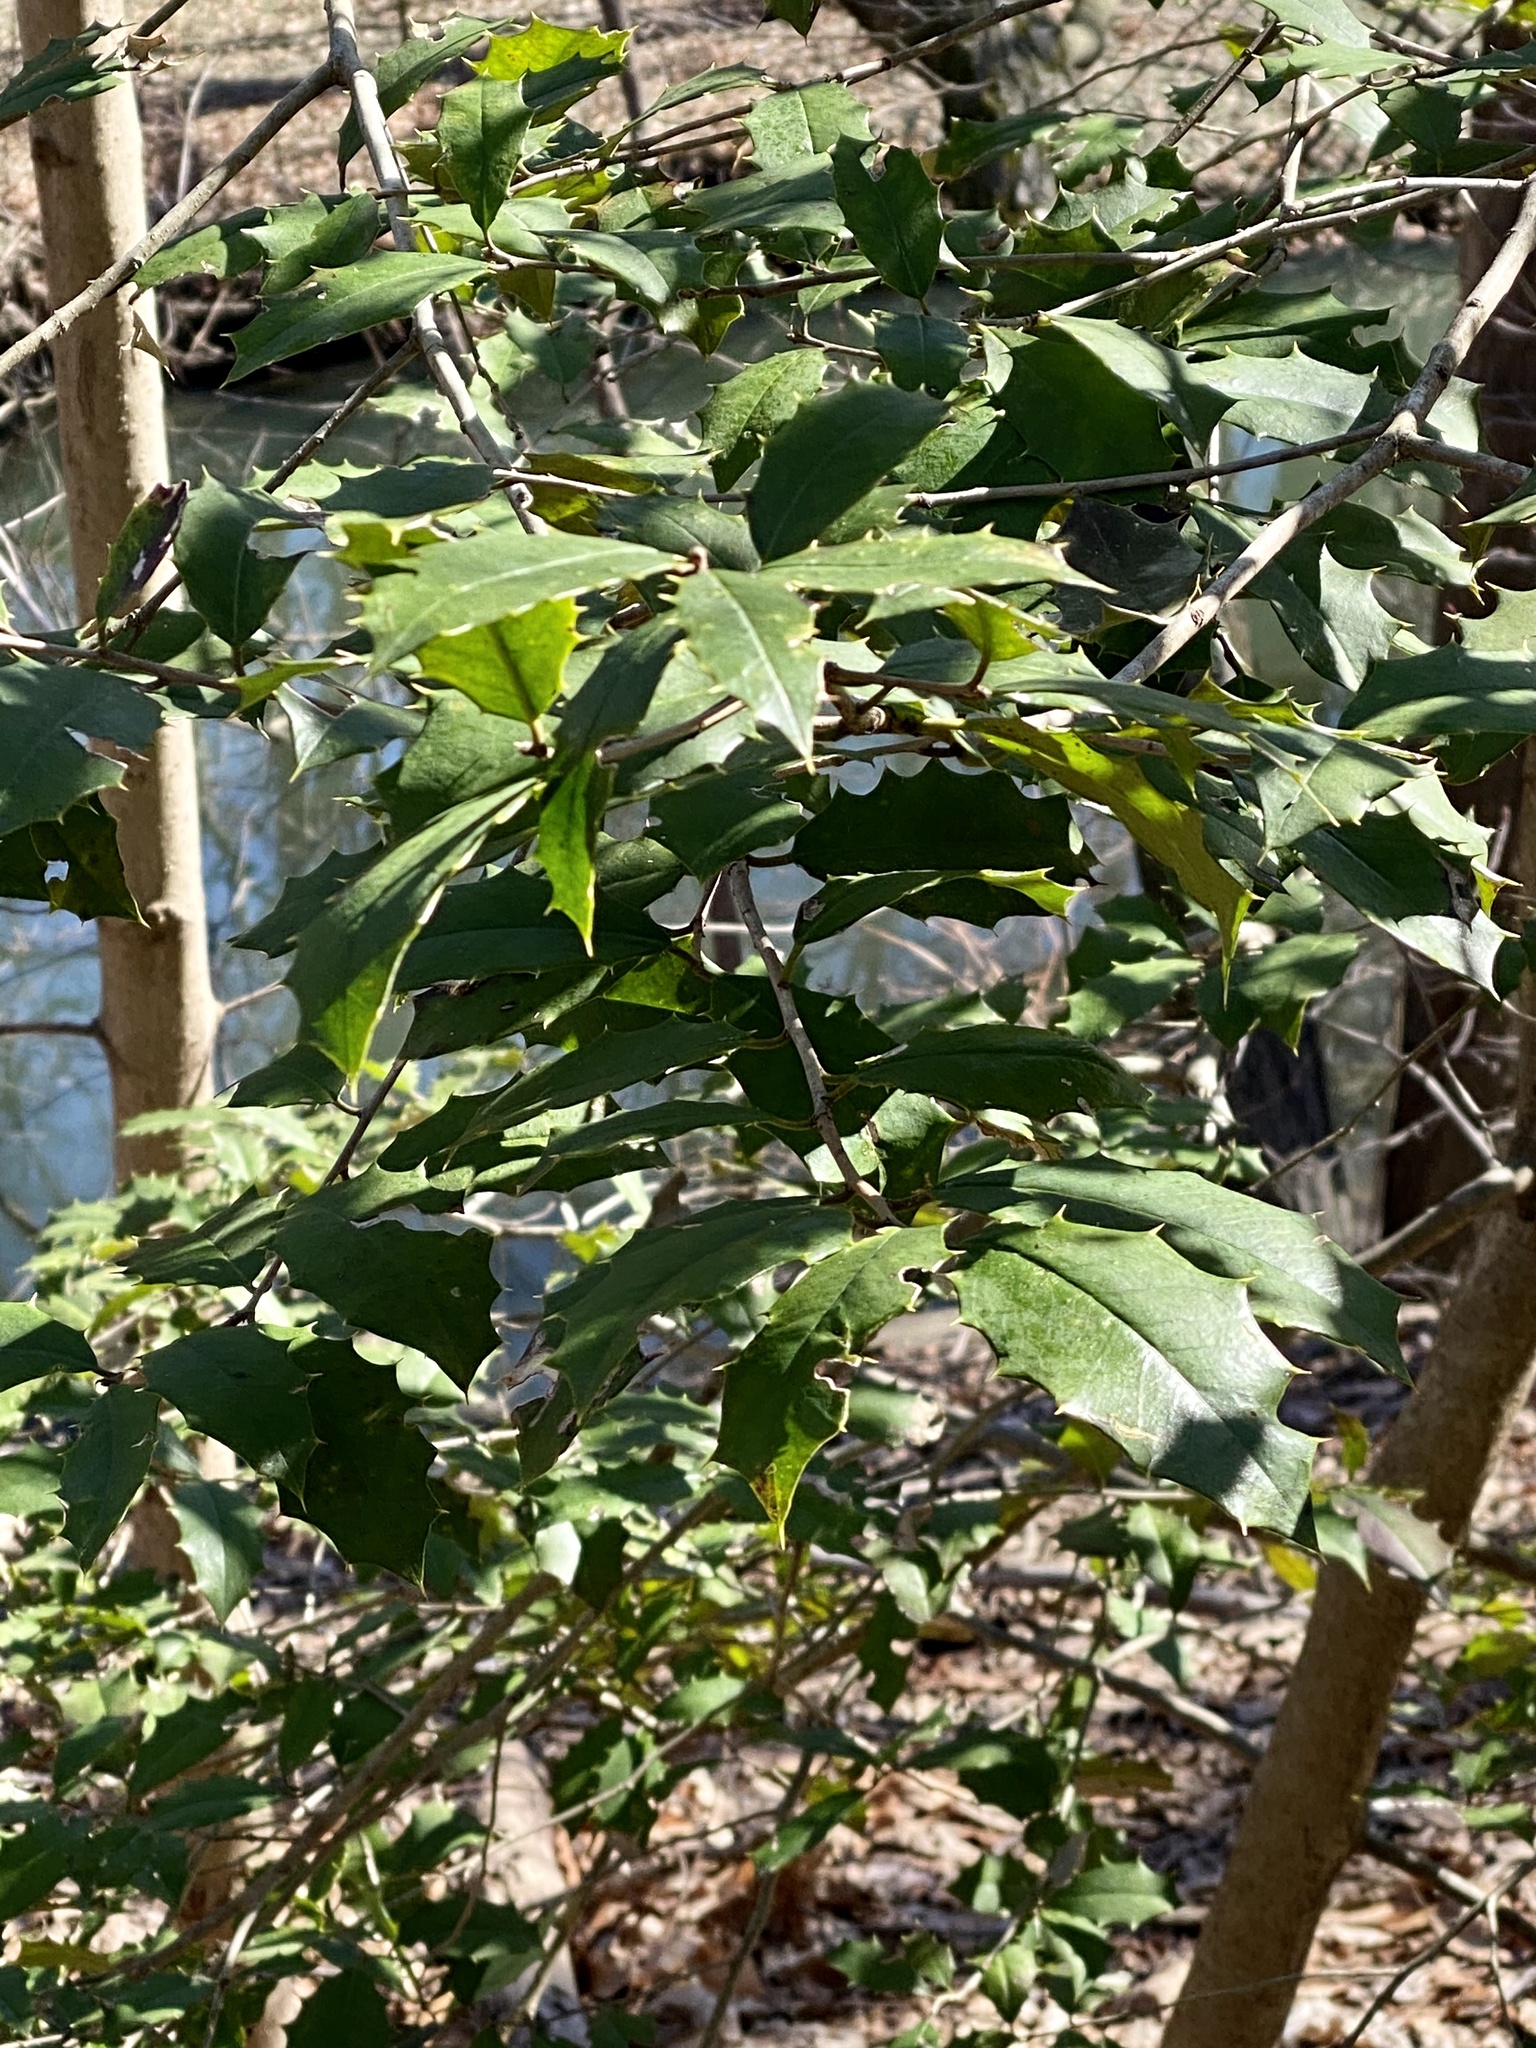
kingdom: Plantae
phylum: Tracheophyta
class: Magnoliopsida
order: Aquifoliales
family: Aquifoliaceae
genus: Ilex
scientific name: Ilex opaca
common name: American holly
